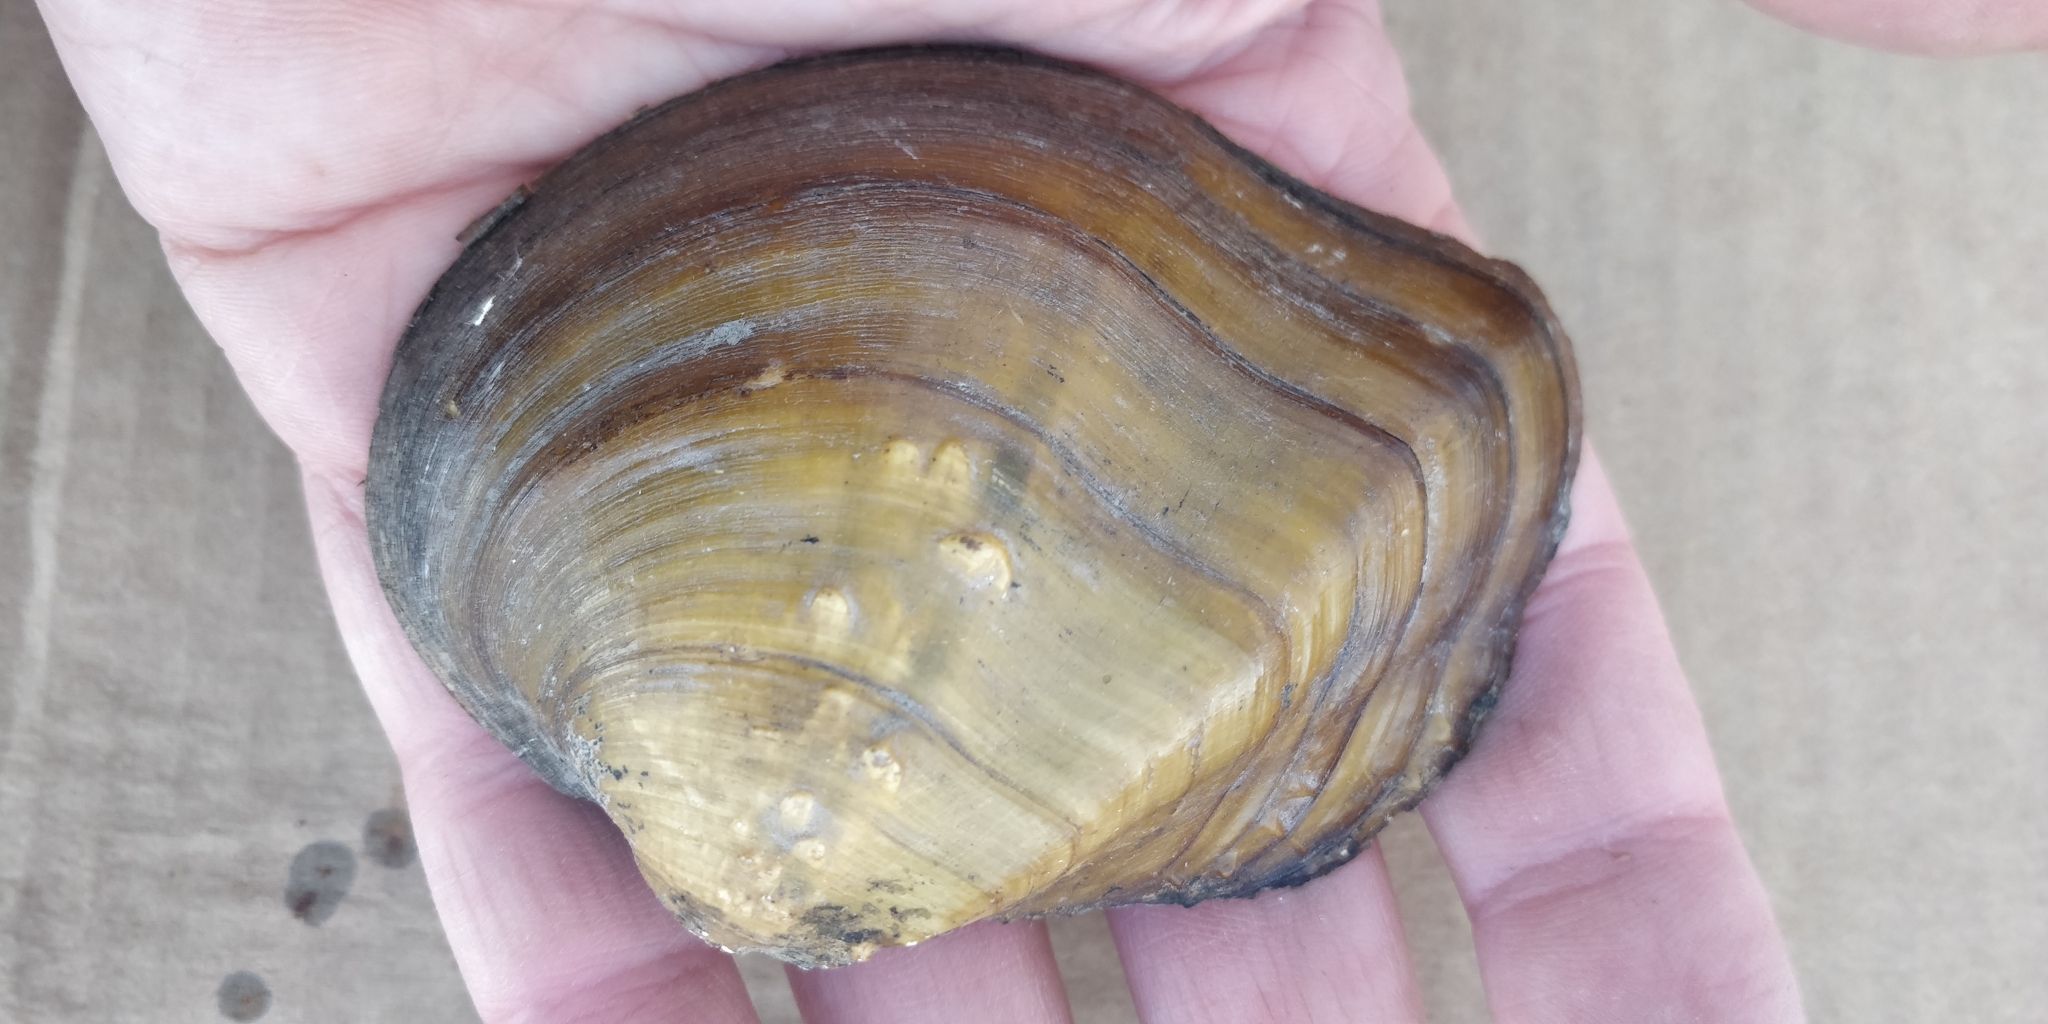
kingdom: Animalia
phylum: Mollusca
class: Bivalvia
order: Unionida
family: Unionidae
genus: Quadrula
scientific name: Quadrula quadrula
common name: Mapleleaf
